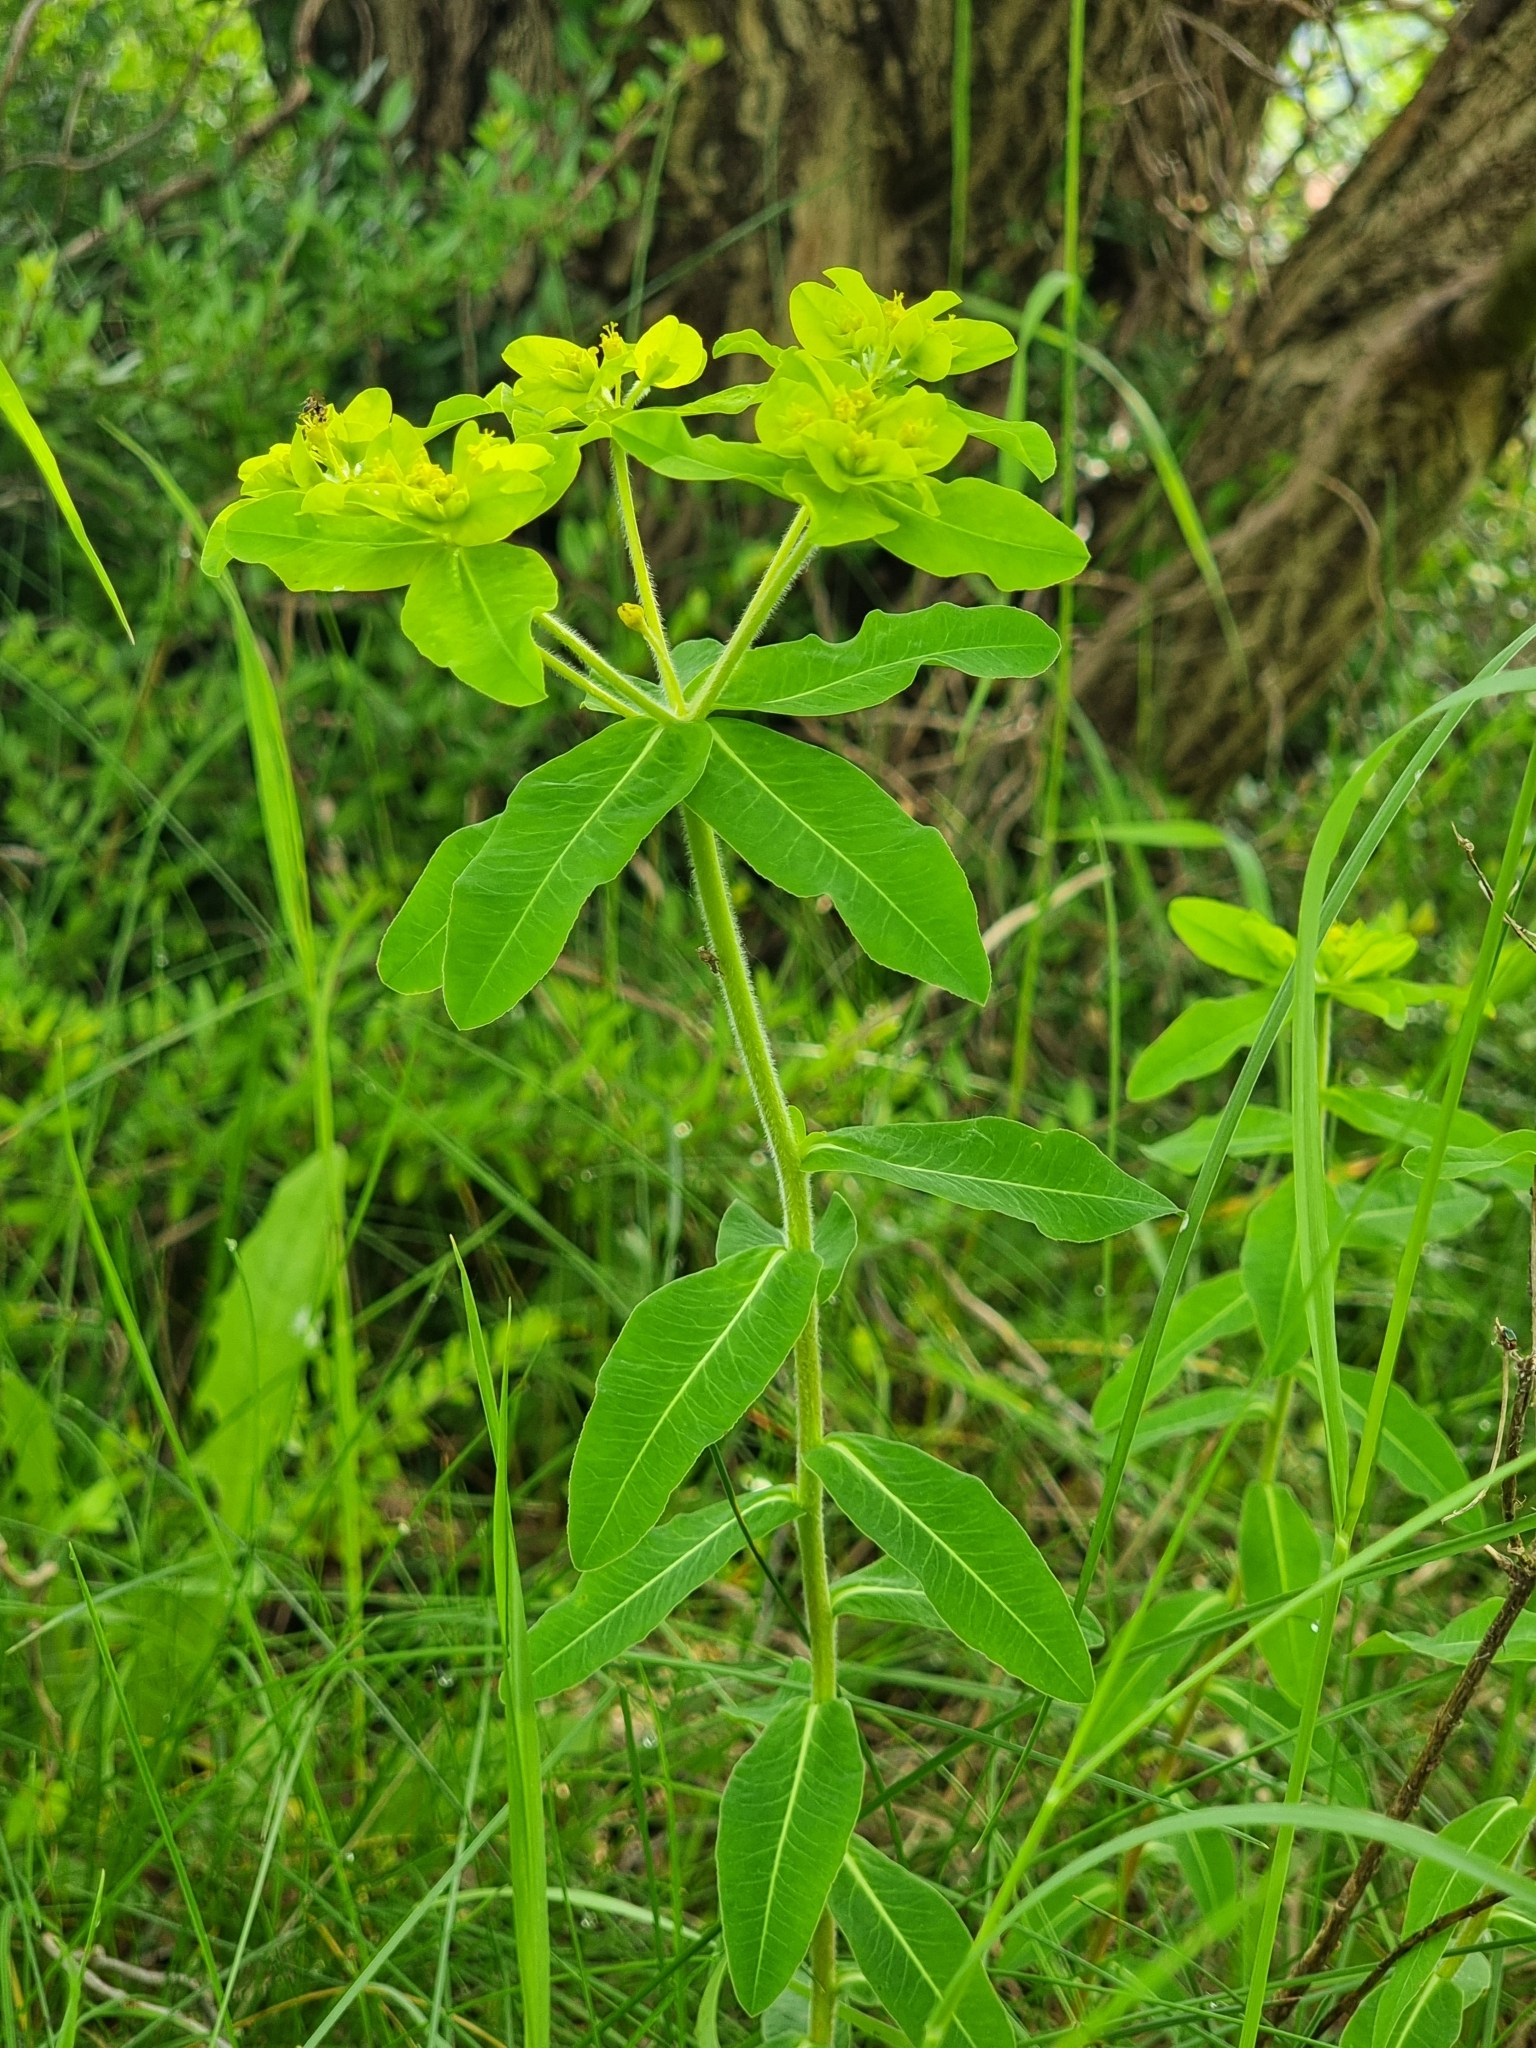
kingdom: Plantae
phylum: Tracheophyta
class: Magnoliopsida
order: Malpighiales
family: Euphorbiaceae
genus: Euphorbia
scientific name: Euphorbia epithymoides
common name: Cushion spurge
